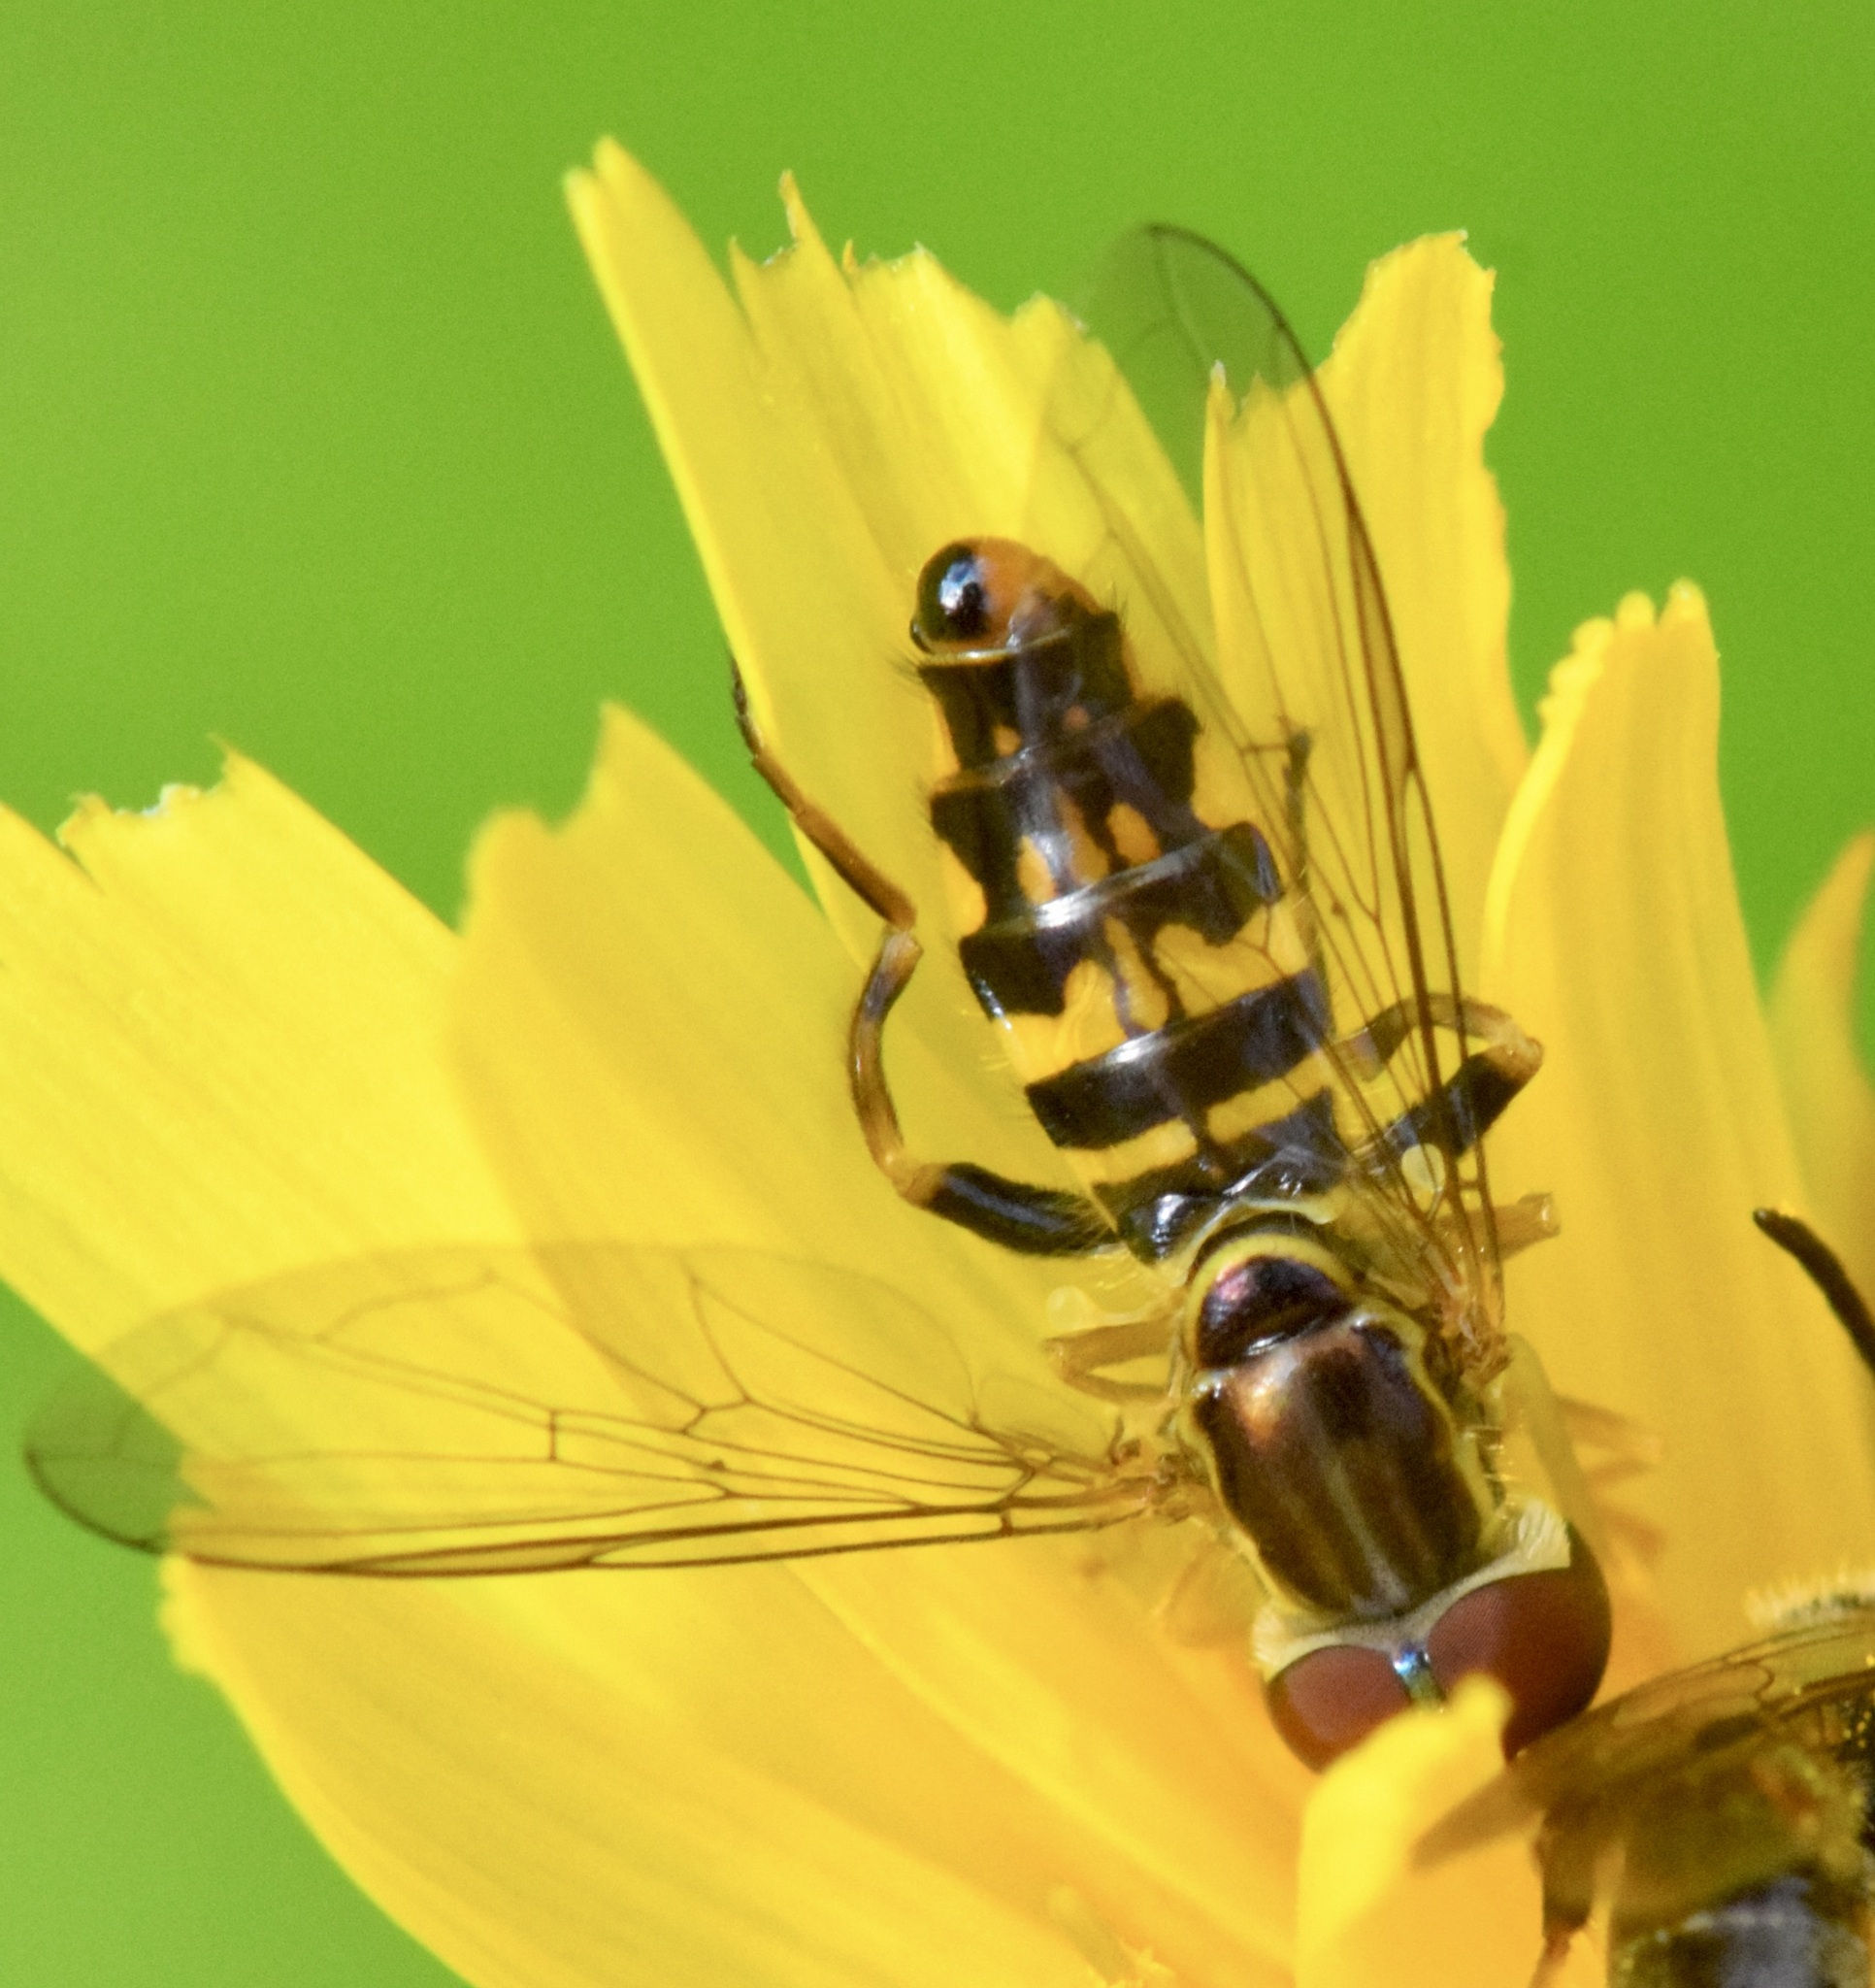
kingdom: Animalia
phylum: Arthropoda
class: Insecta
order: Diptera
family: Syrphidae
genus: Toxomerus
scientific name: Toxomerus geminatus
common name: Eastern calligrapher
